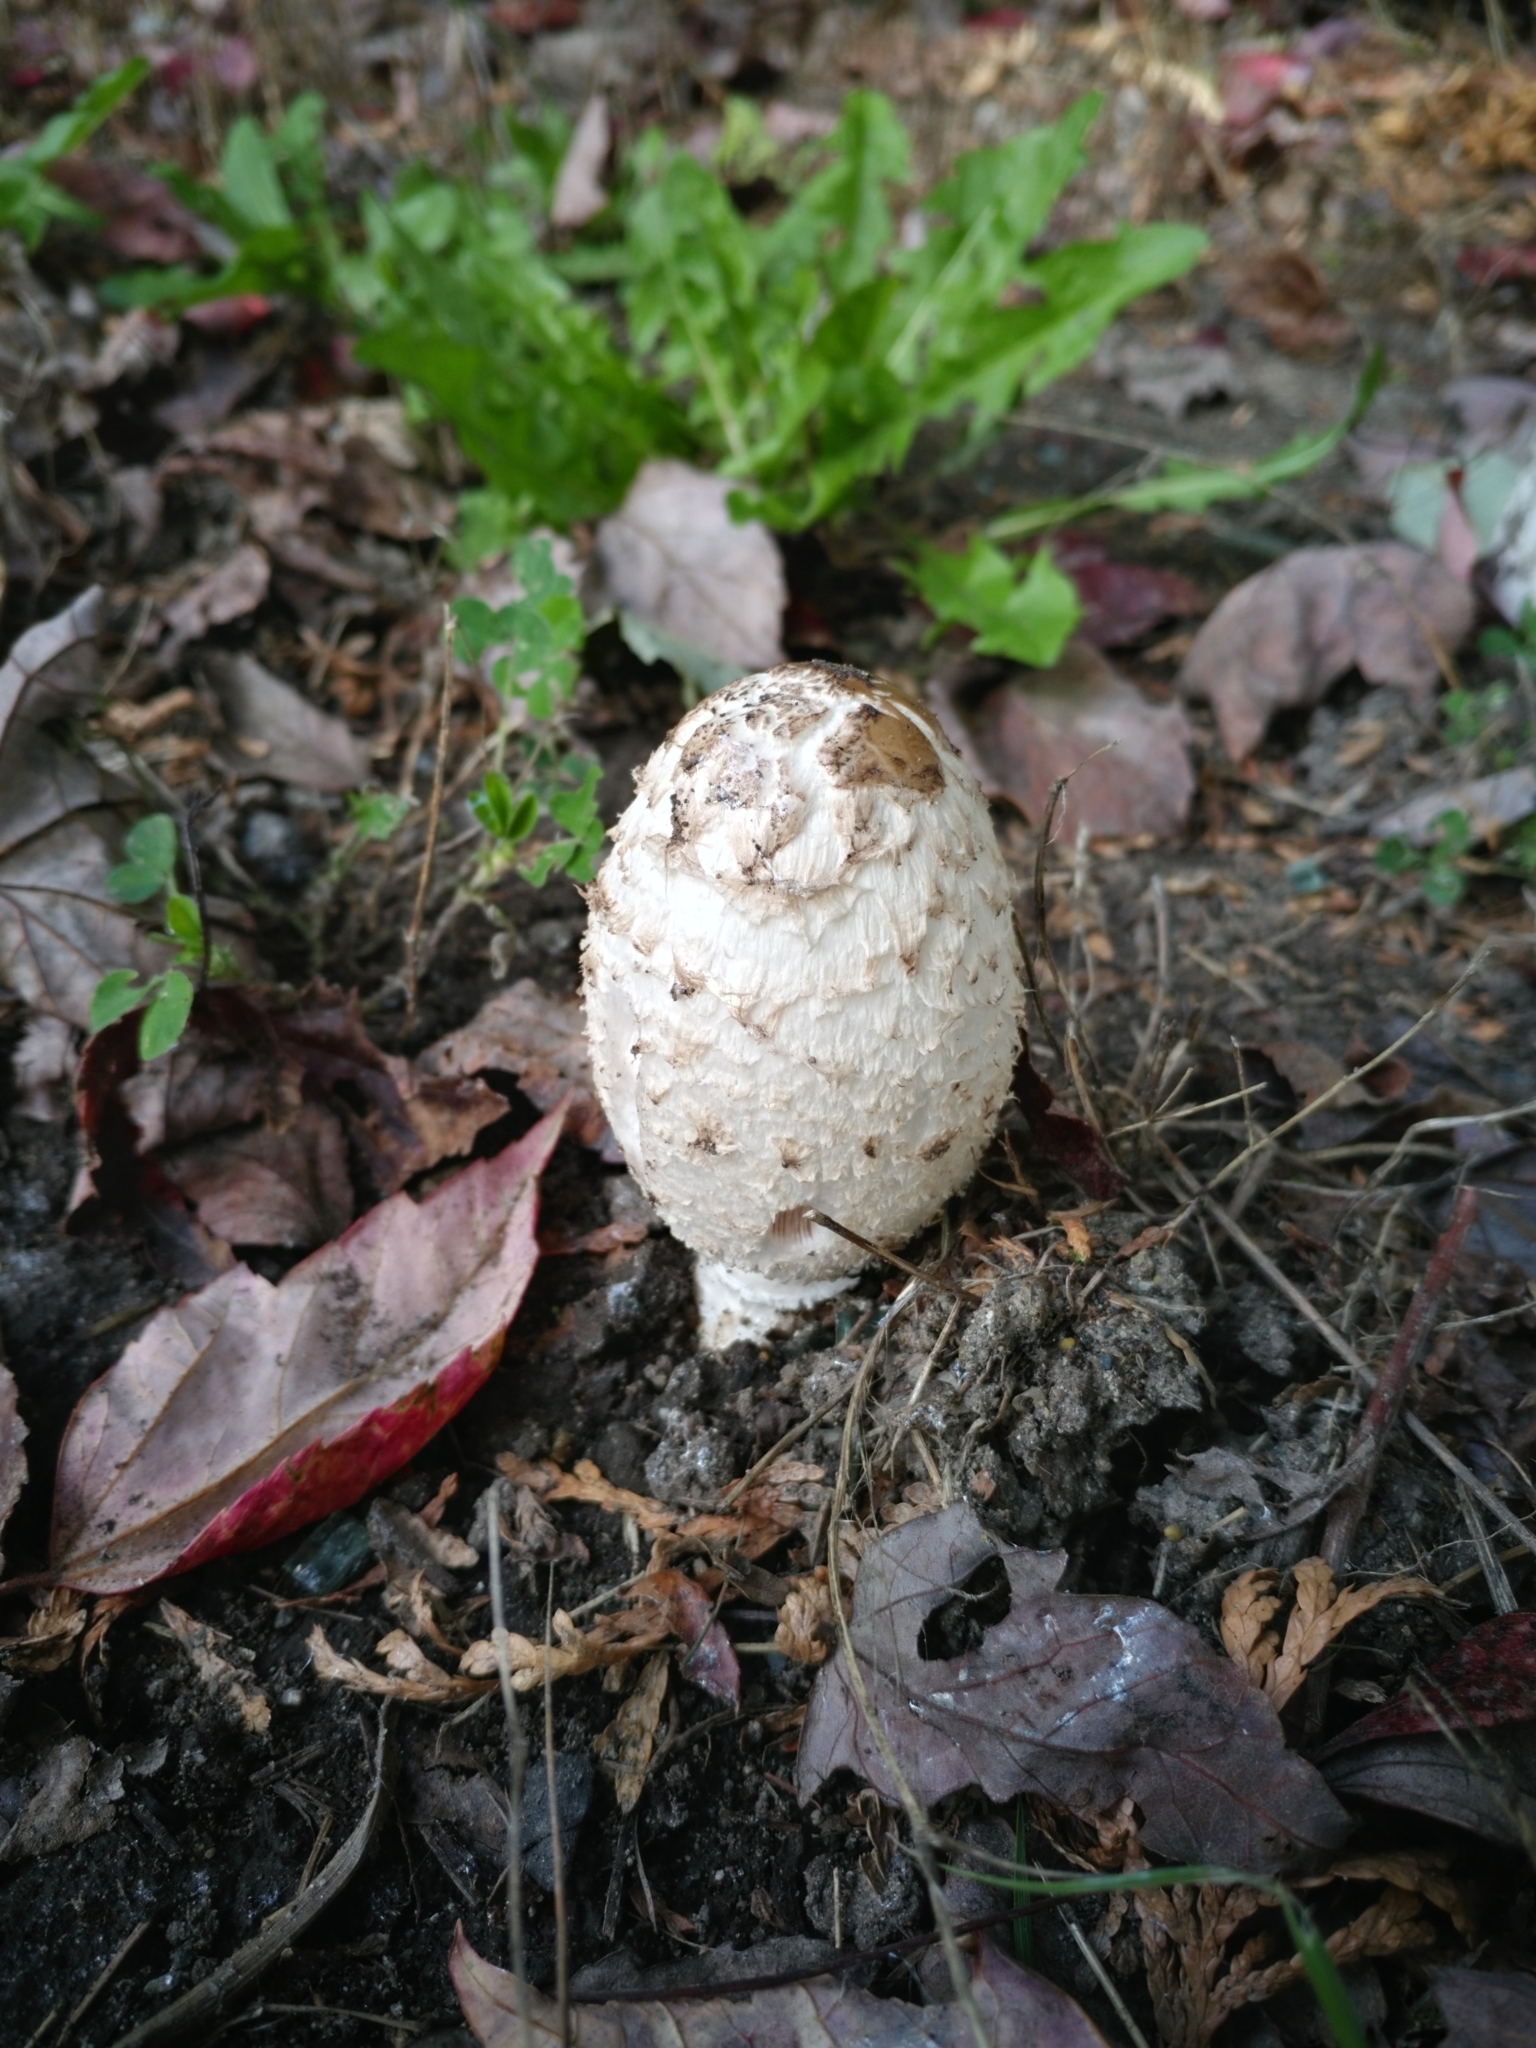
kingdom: Fungi
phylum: Basidiomycota
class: Agaricomycetes
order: Agaricales
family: Agaricaceae
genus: Coprinus
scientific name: Coprinus comatus
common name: Lawyer's wig
